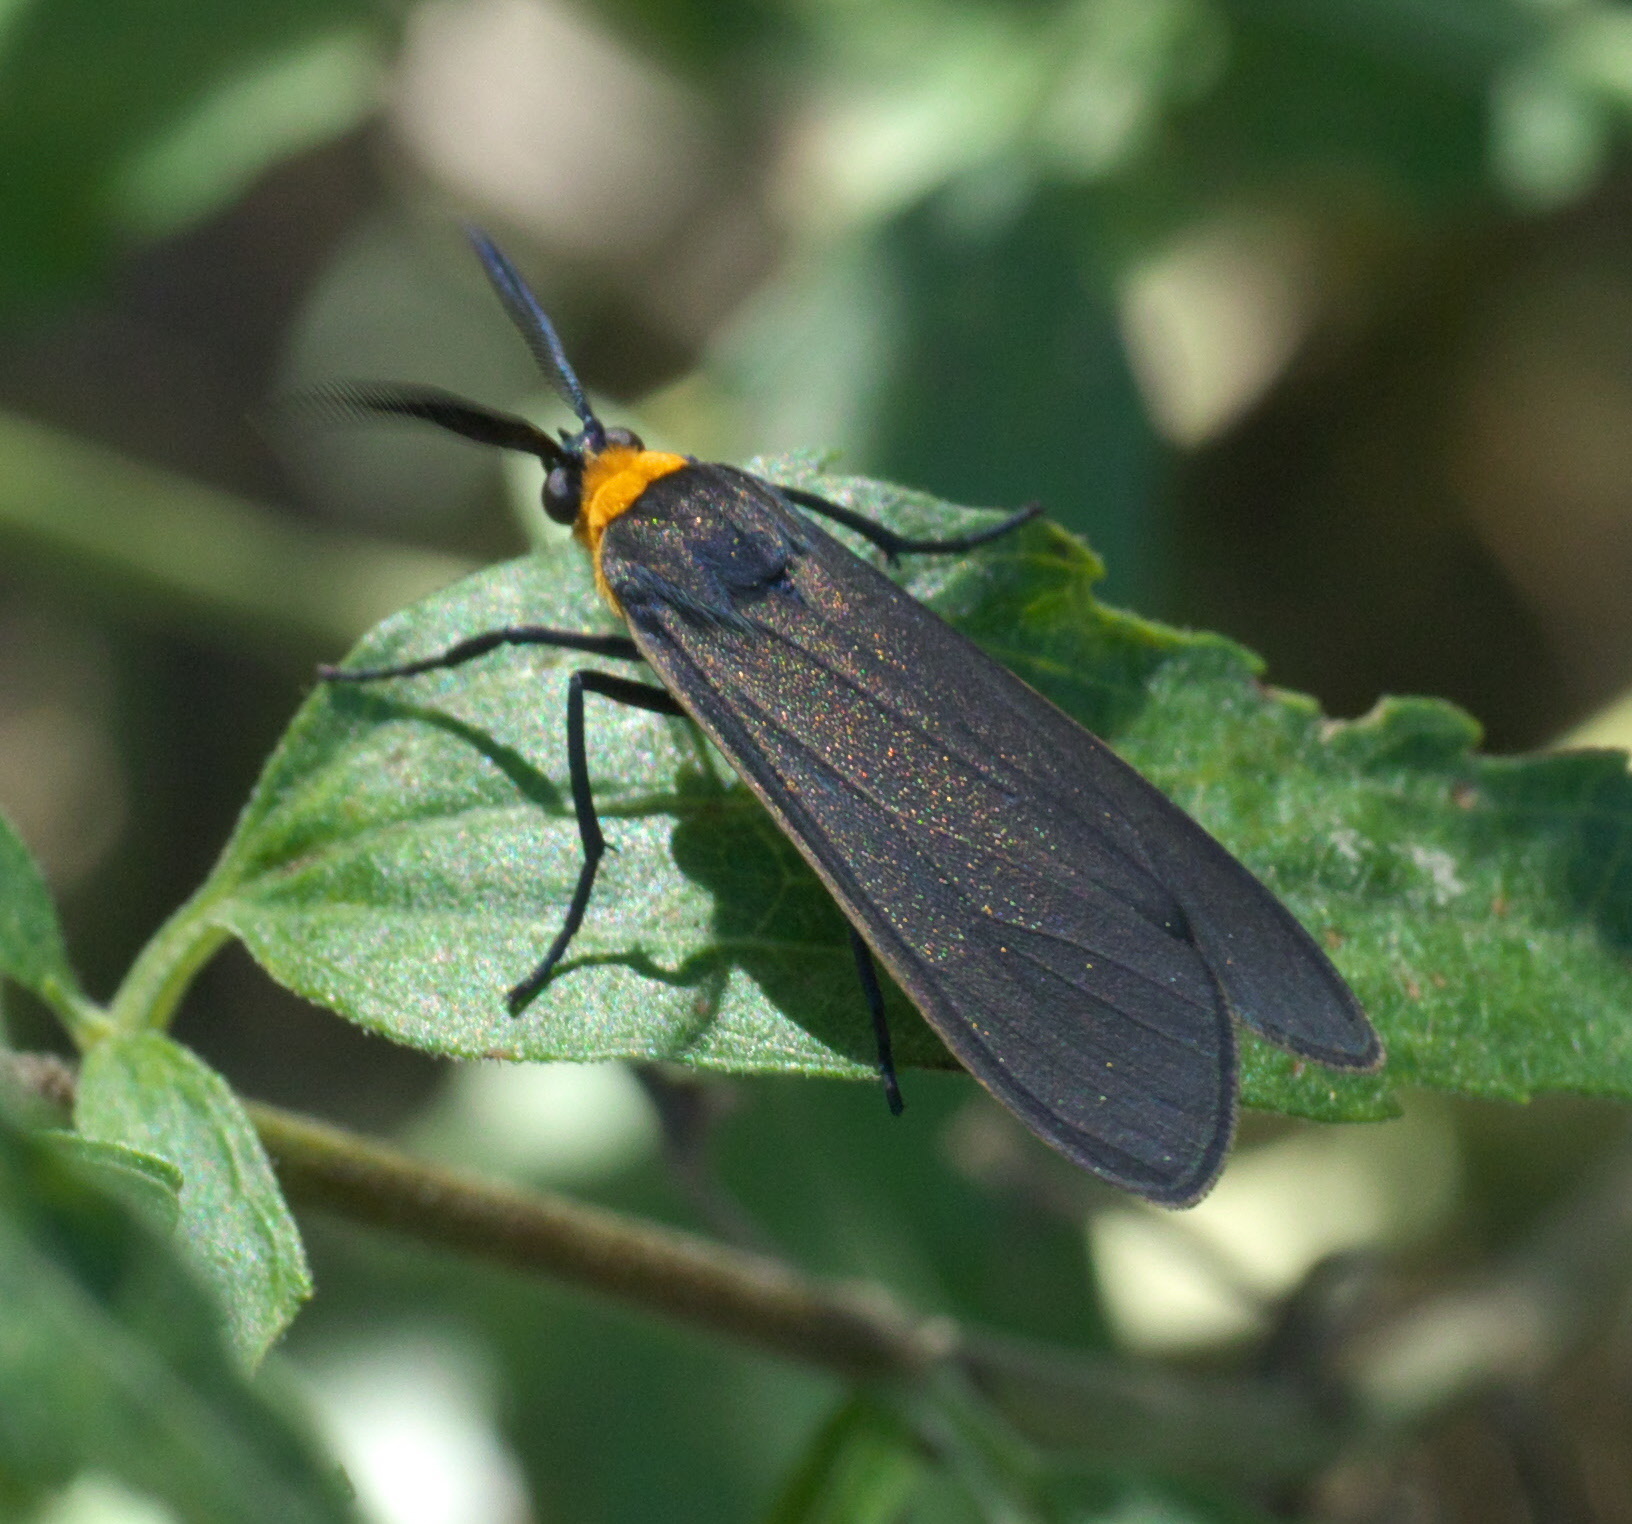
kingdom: Animalia
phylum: Arthropoda
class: Insecta
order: Lepidoptera
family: Erebidae
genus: Cisseps
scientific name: Cisseps fulvicollis
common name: Yellow-collared scape moth
